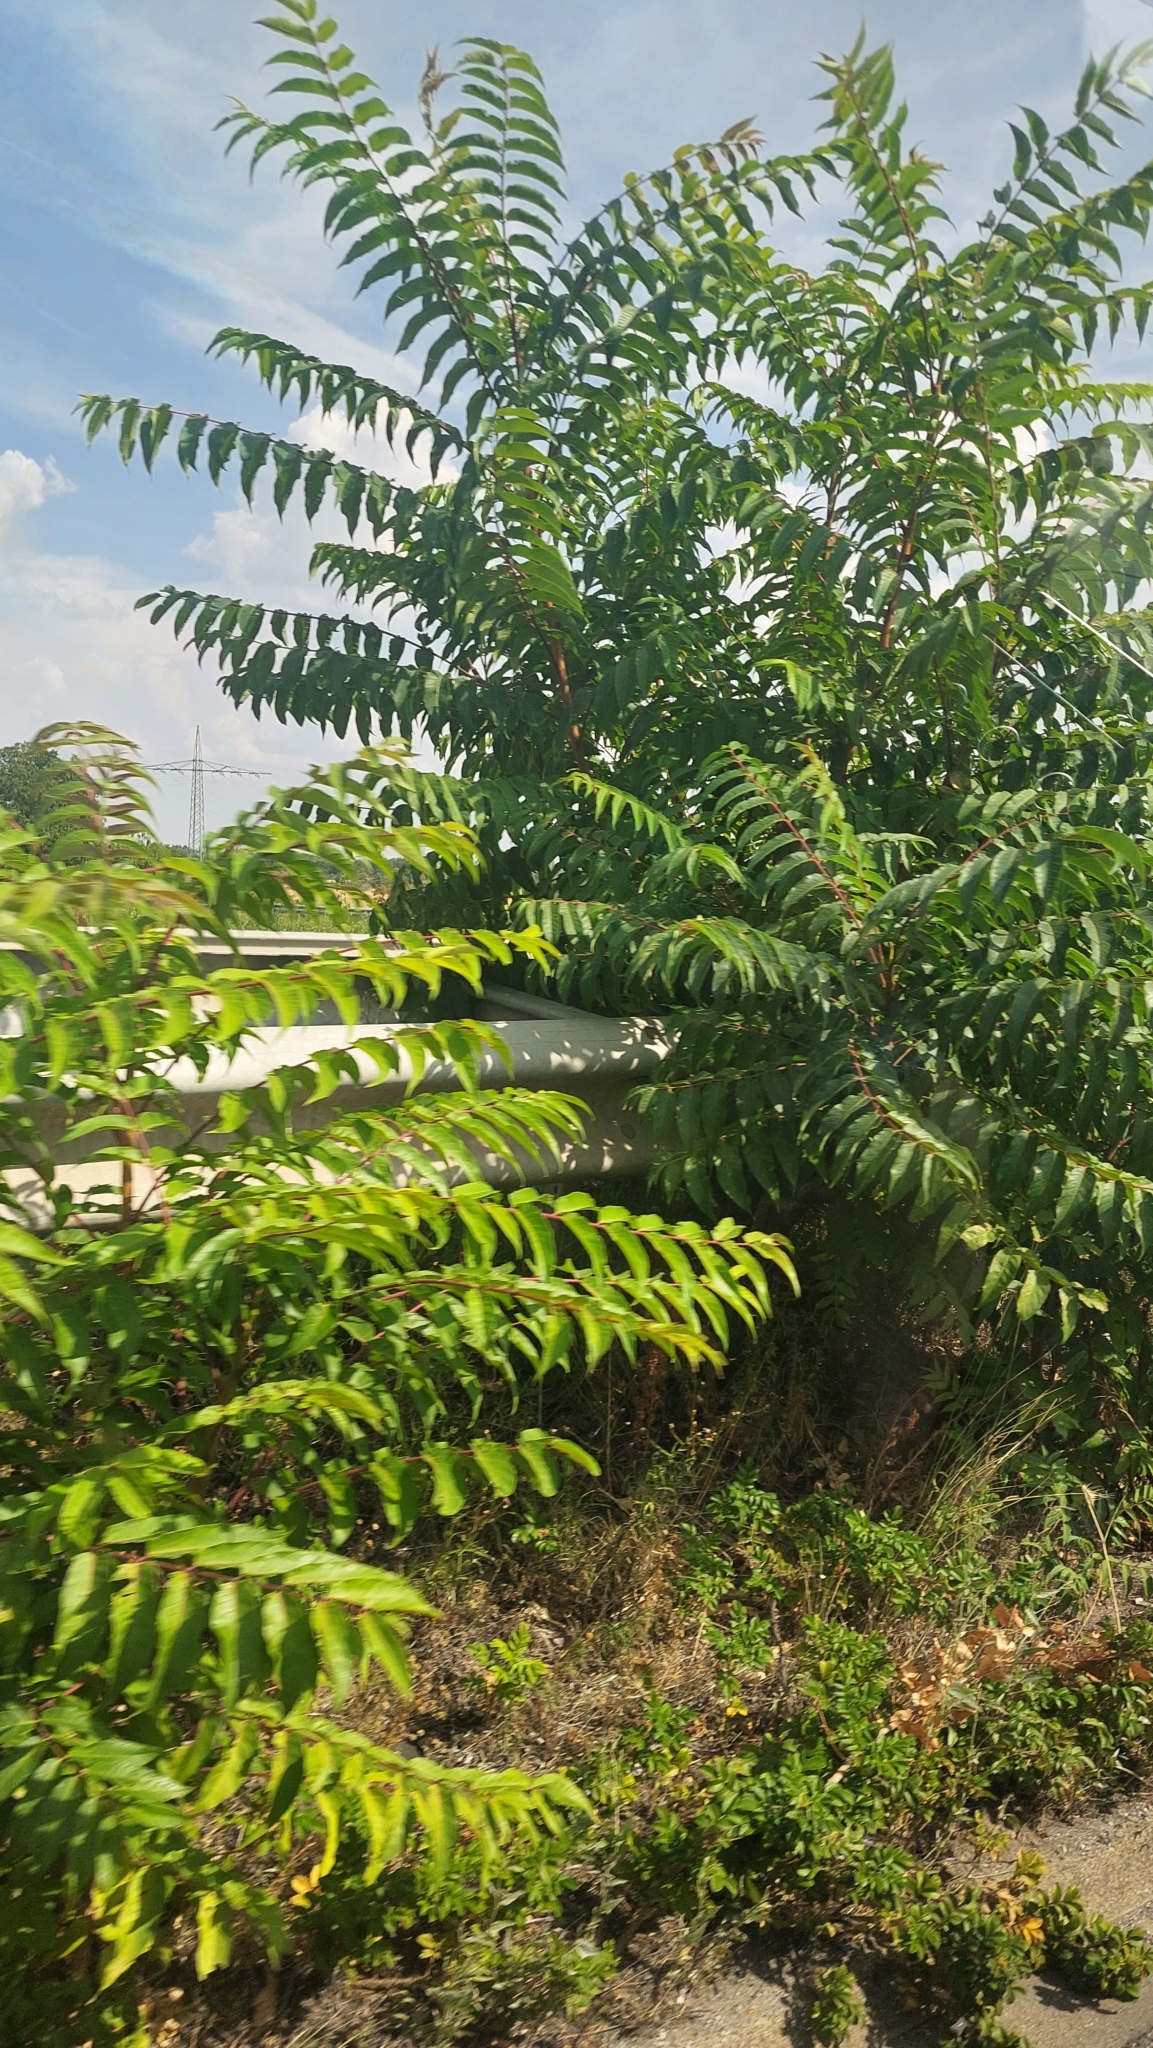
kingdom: Plantae
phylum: Tracheophyta
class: Magnoliopsida
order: Sapindales
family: Simaroubaceae
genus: Ailanthus
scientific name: Ailanthus altissima
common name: Tree-of-heaven
